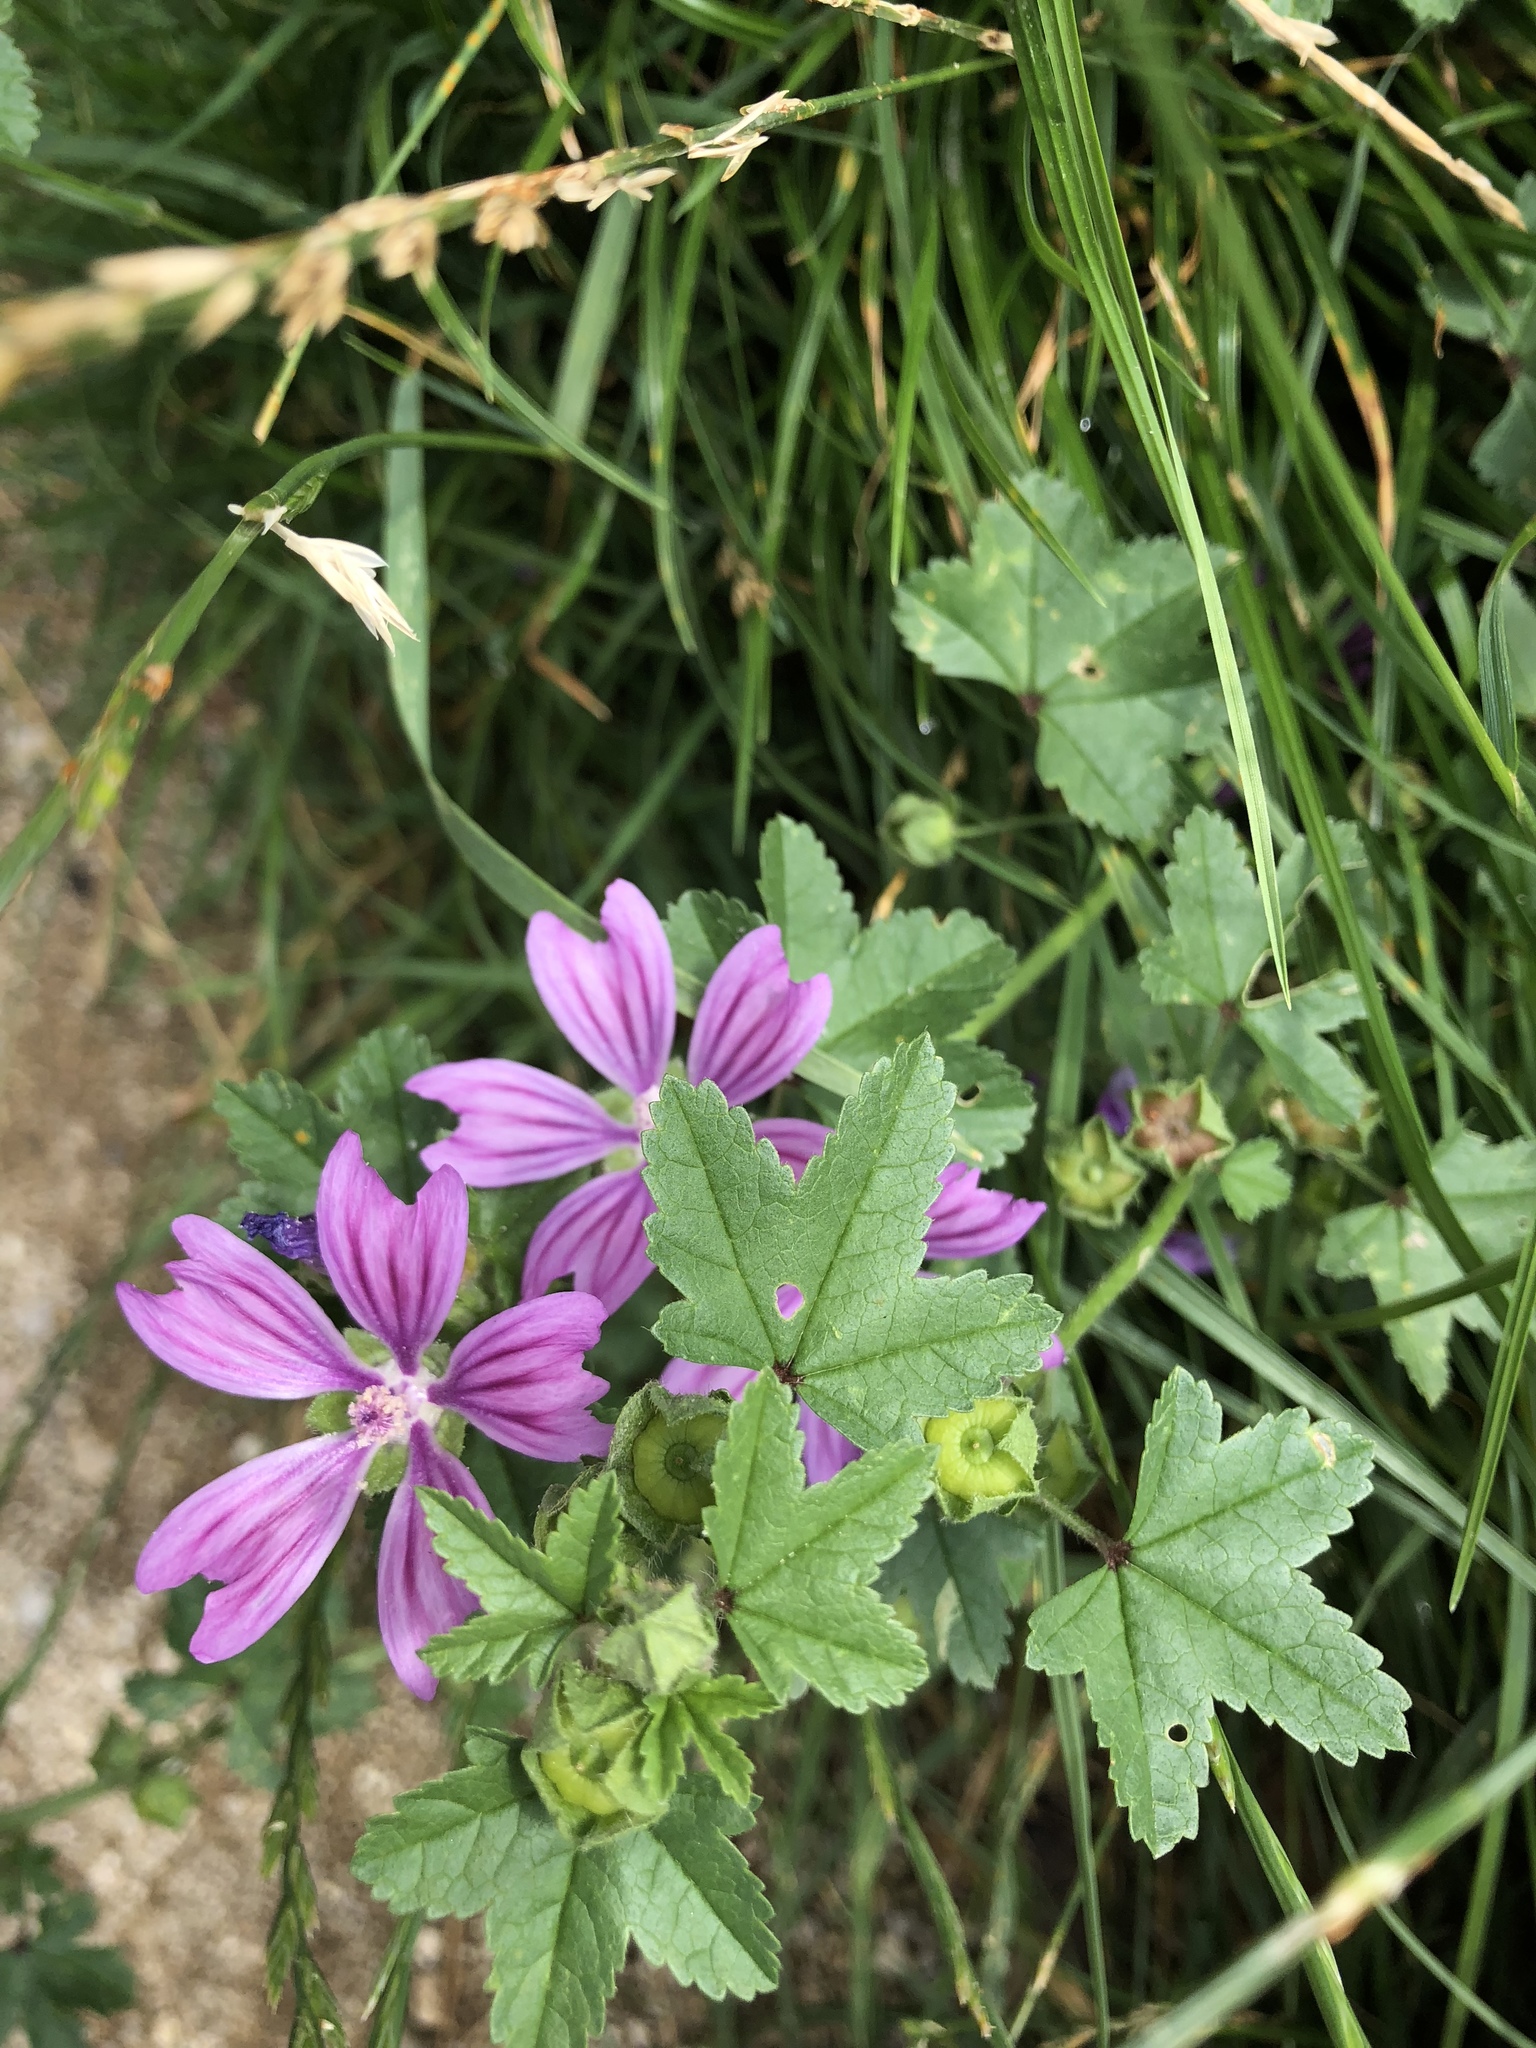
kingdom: Plantae
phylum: Tracheophyta
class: Magnoliopsida
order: Malvales
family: Malvaceae
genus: Malva
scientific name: Malva sylvestris
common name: Common mallow
